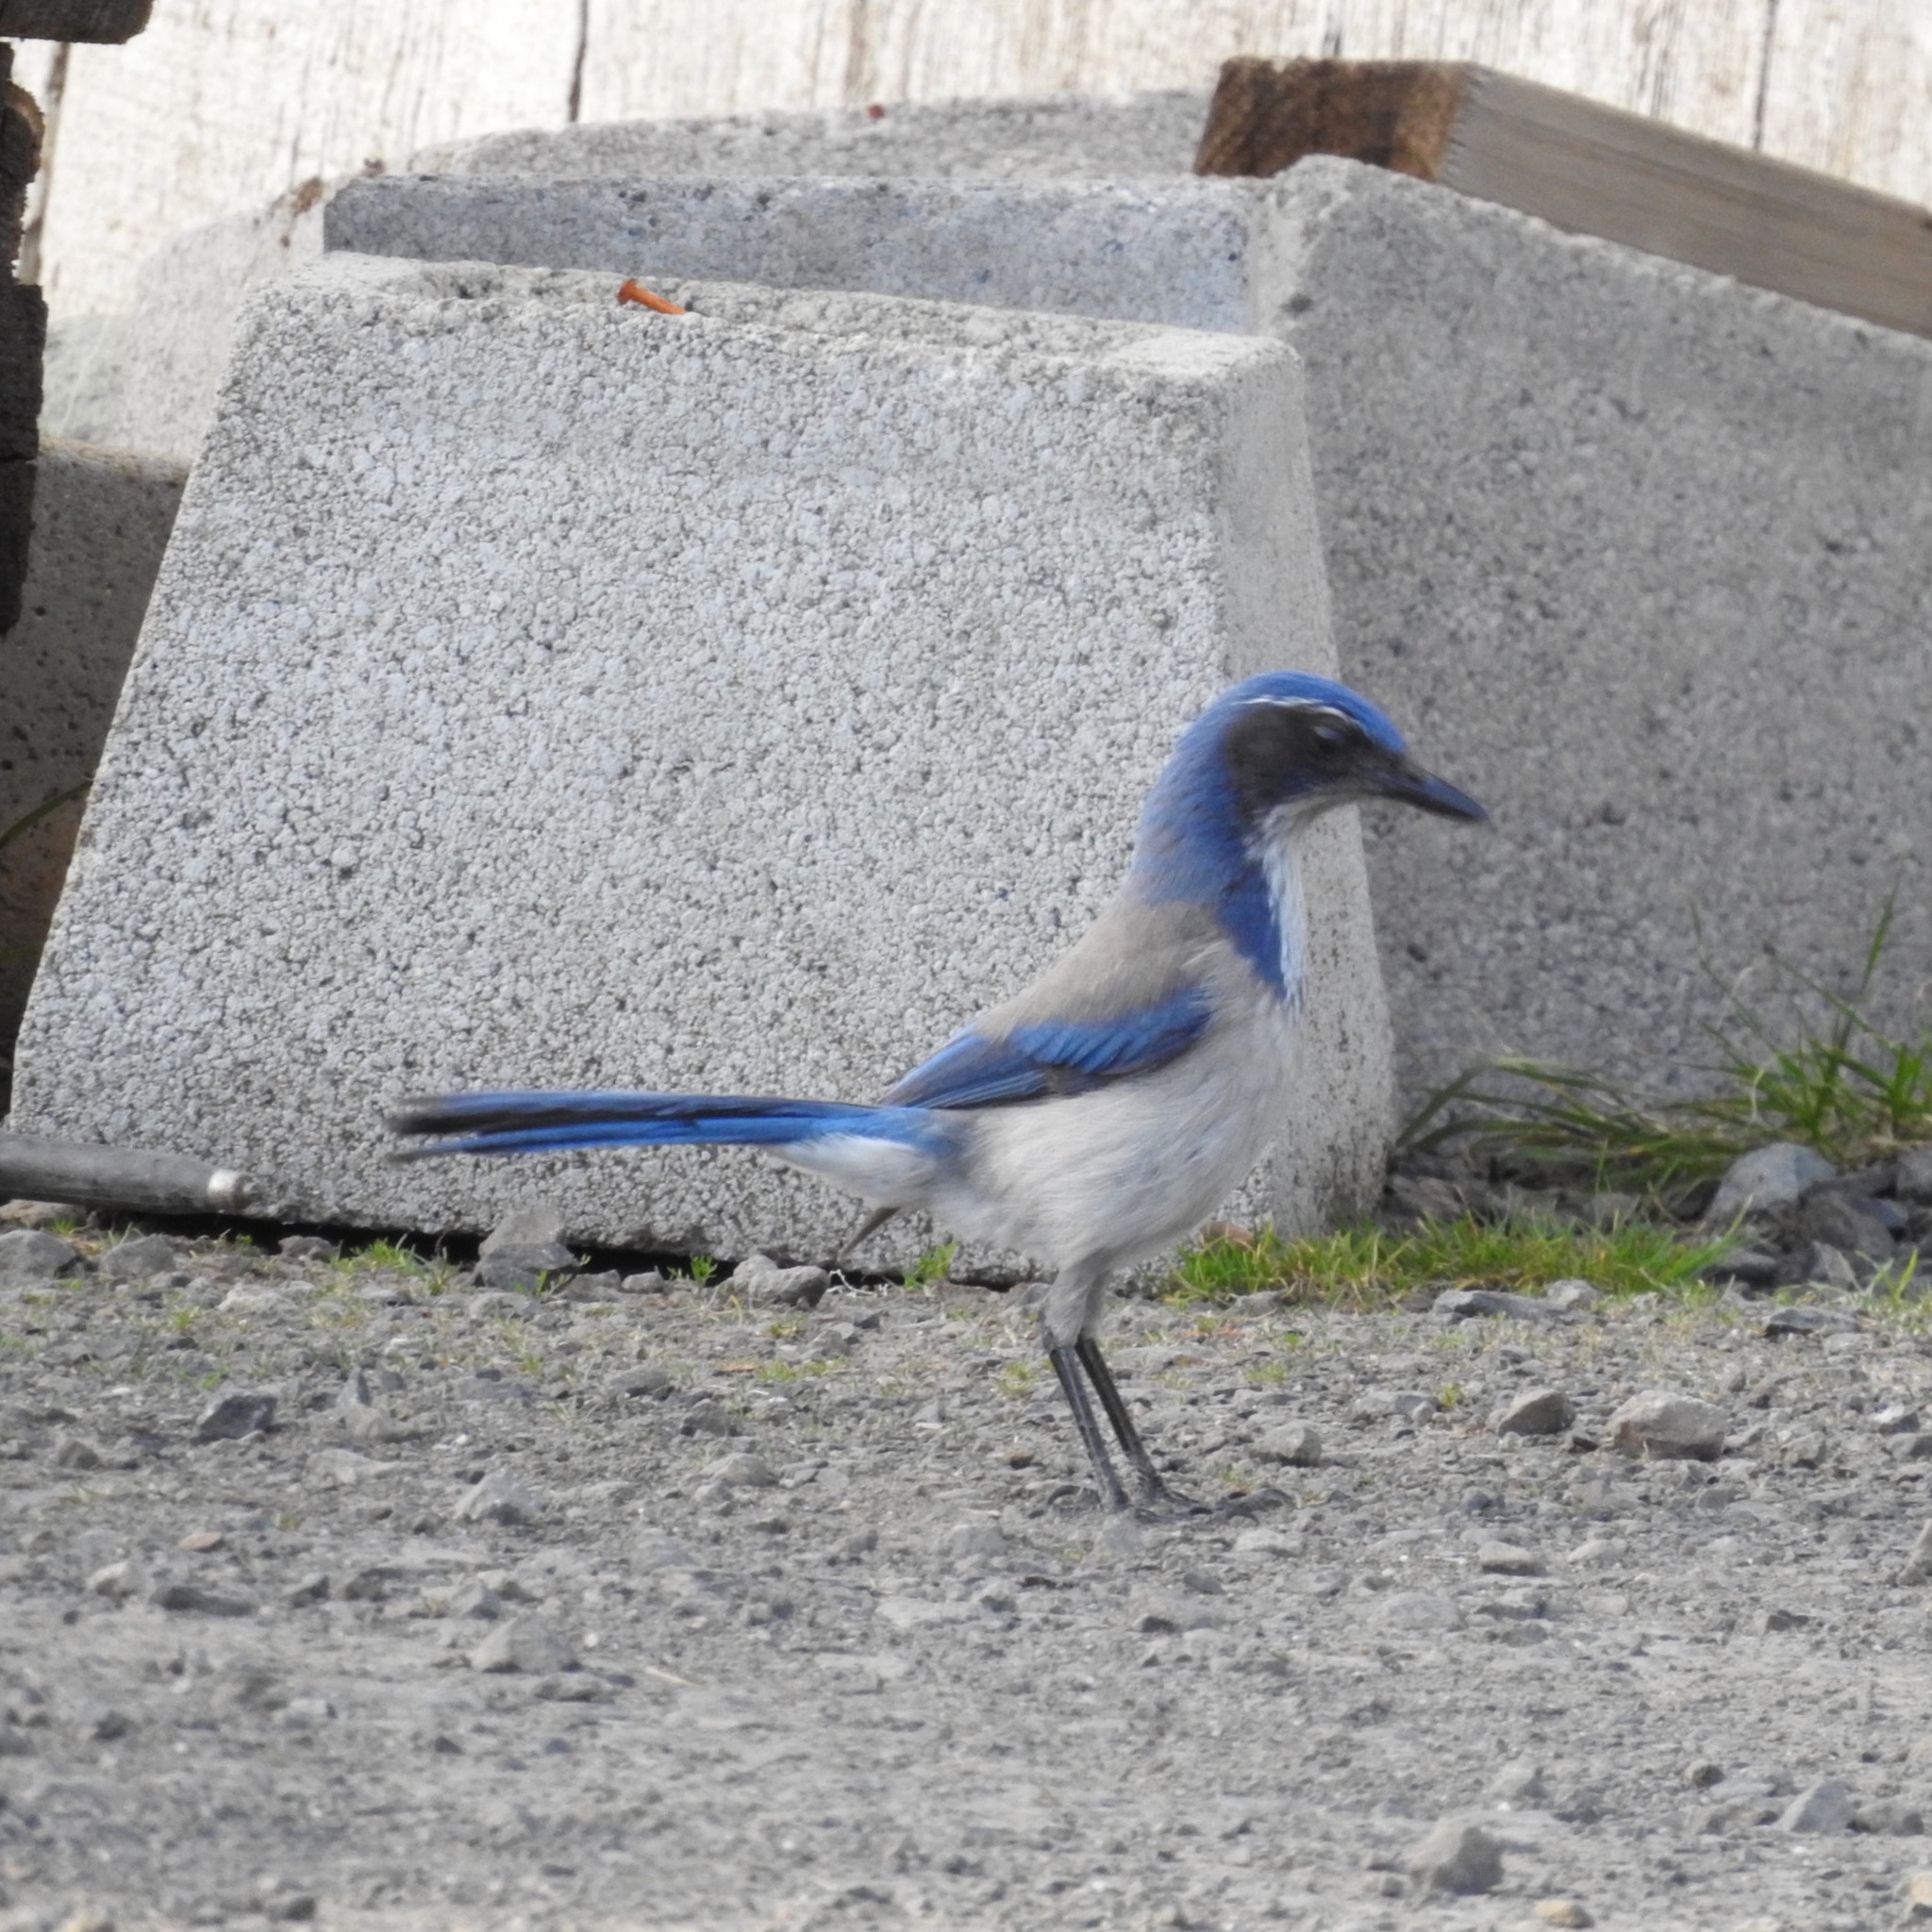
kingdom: Animalia
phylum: Chordata
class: Aves
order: Passeriformes
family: Corvidae
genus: Aphelocoma
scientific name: Aphelocoma californica
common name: California scrub-jay
